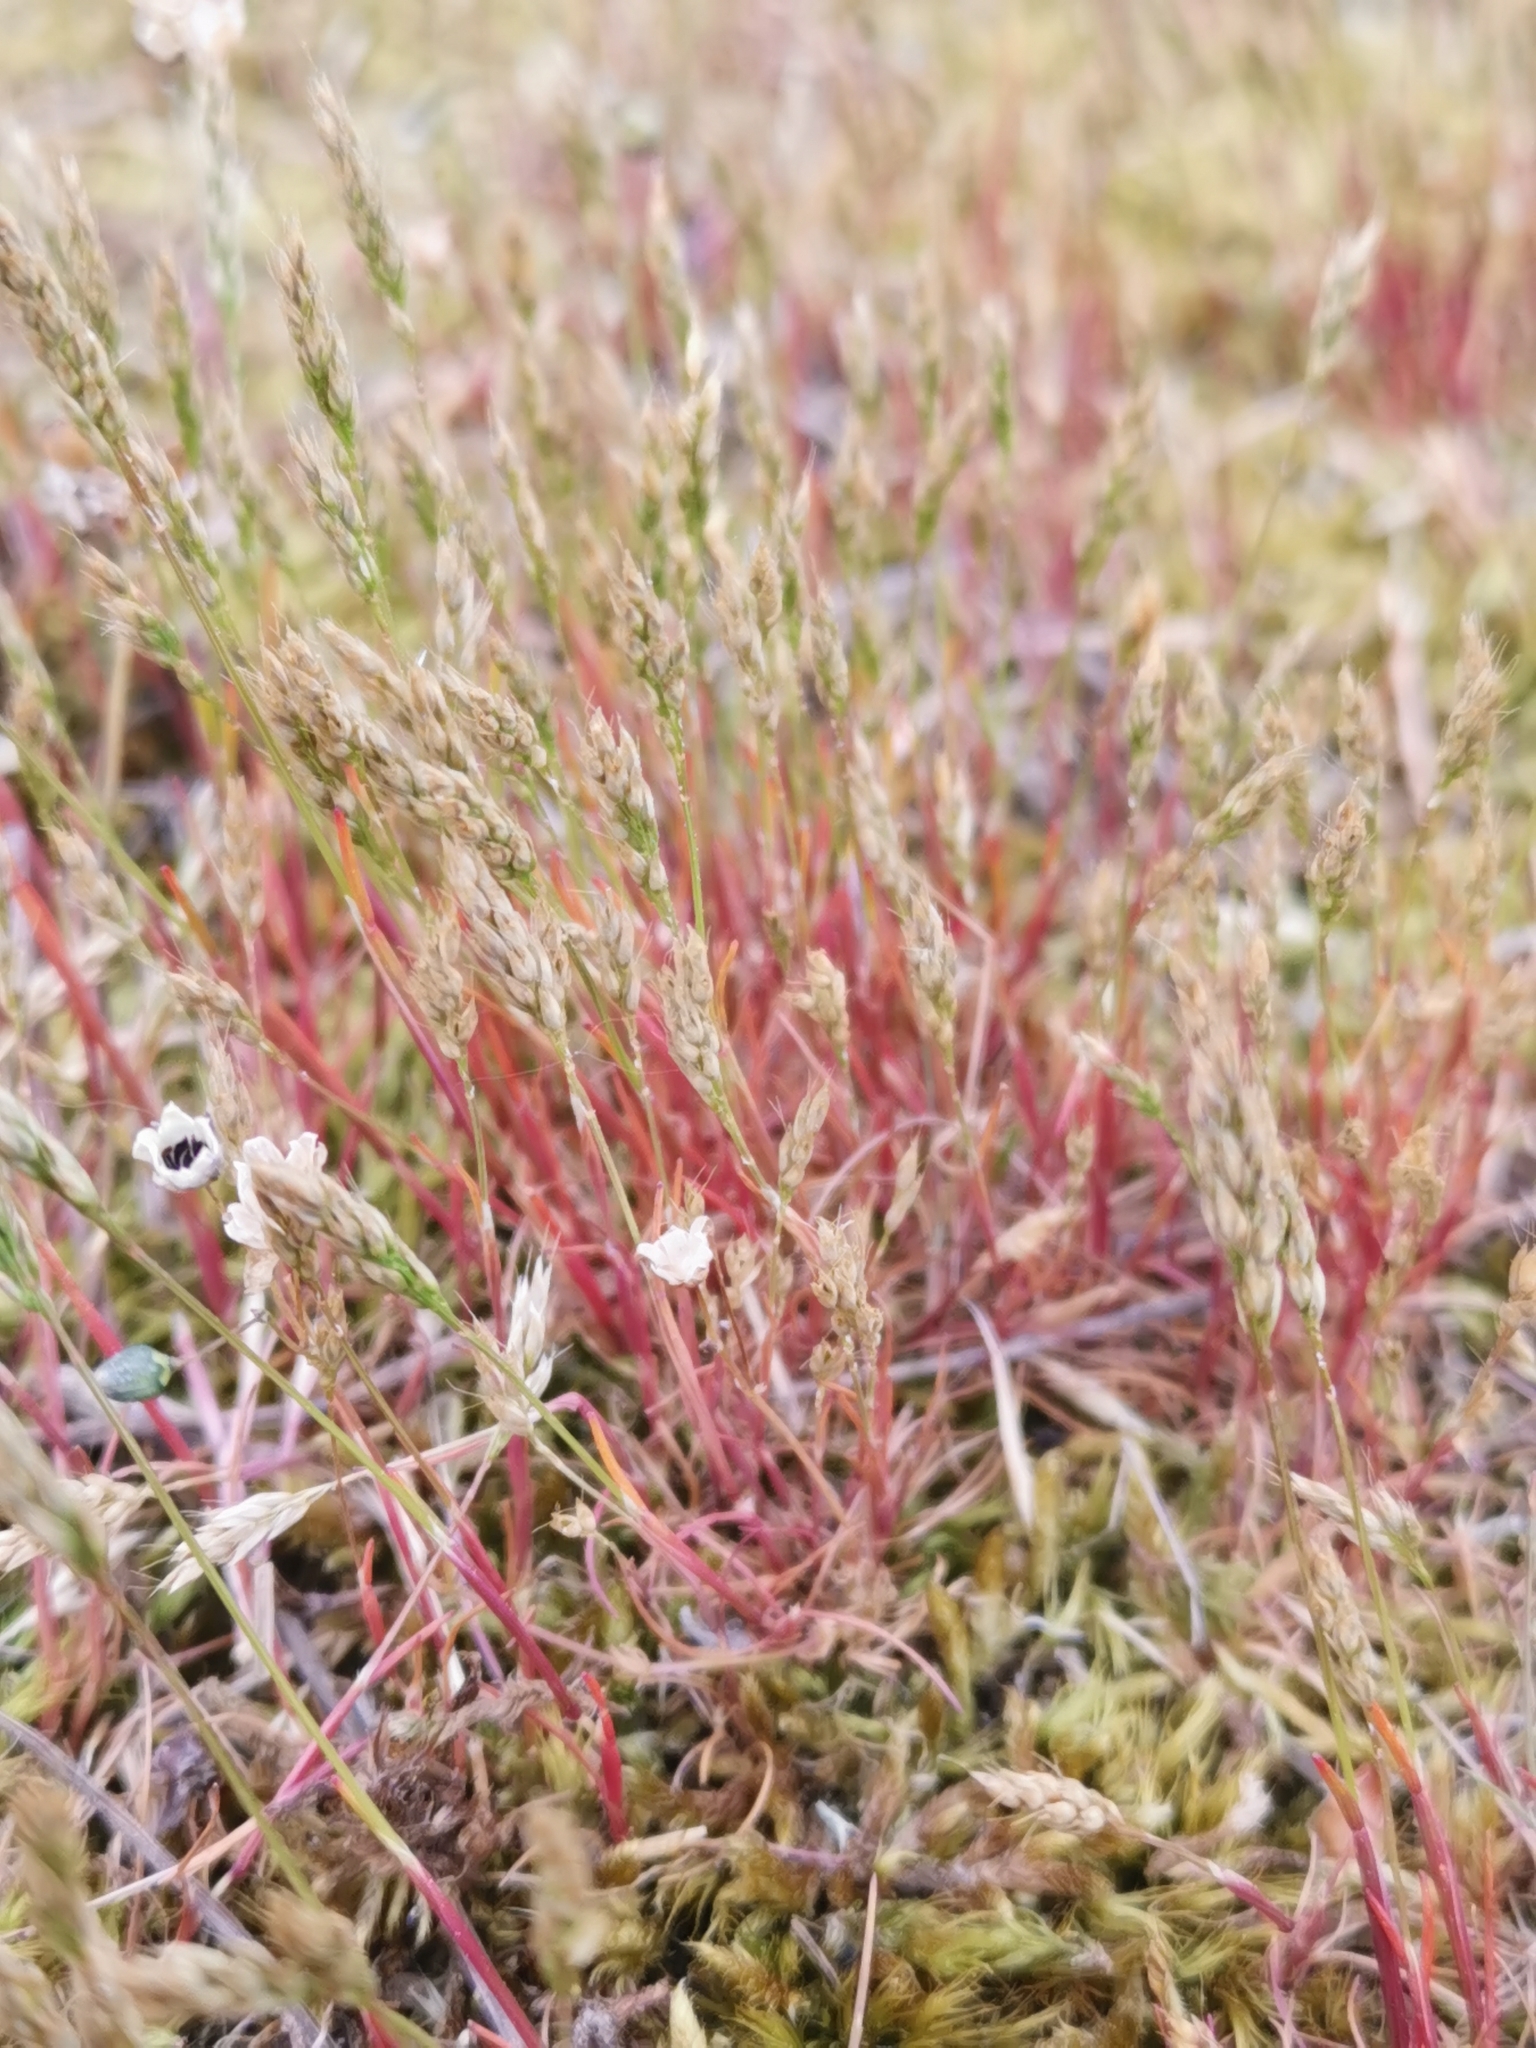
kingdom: Plantae
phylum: Tracheophyta
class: Liliopsida
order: Poales
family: Poaceae
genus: Aira
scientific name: Aira praecox
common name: Early hair-grass
